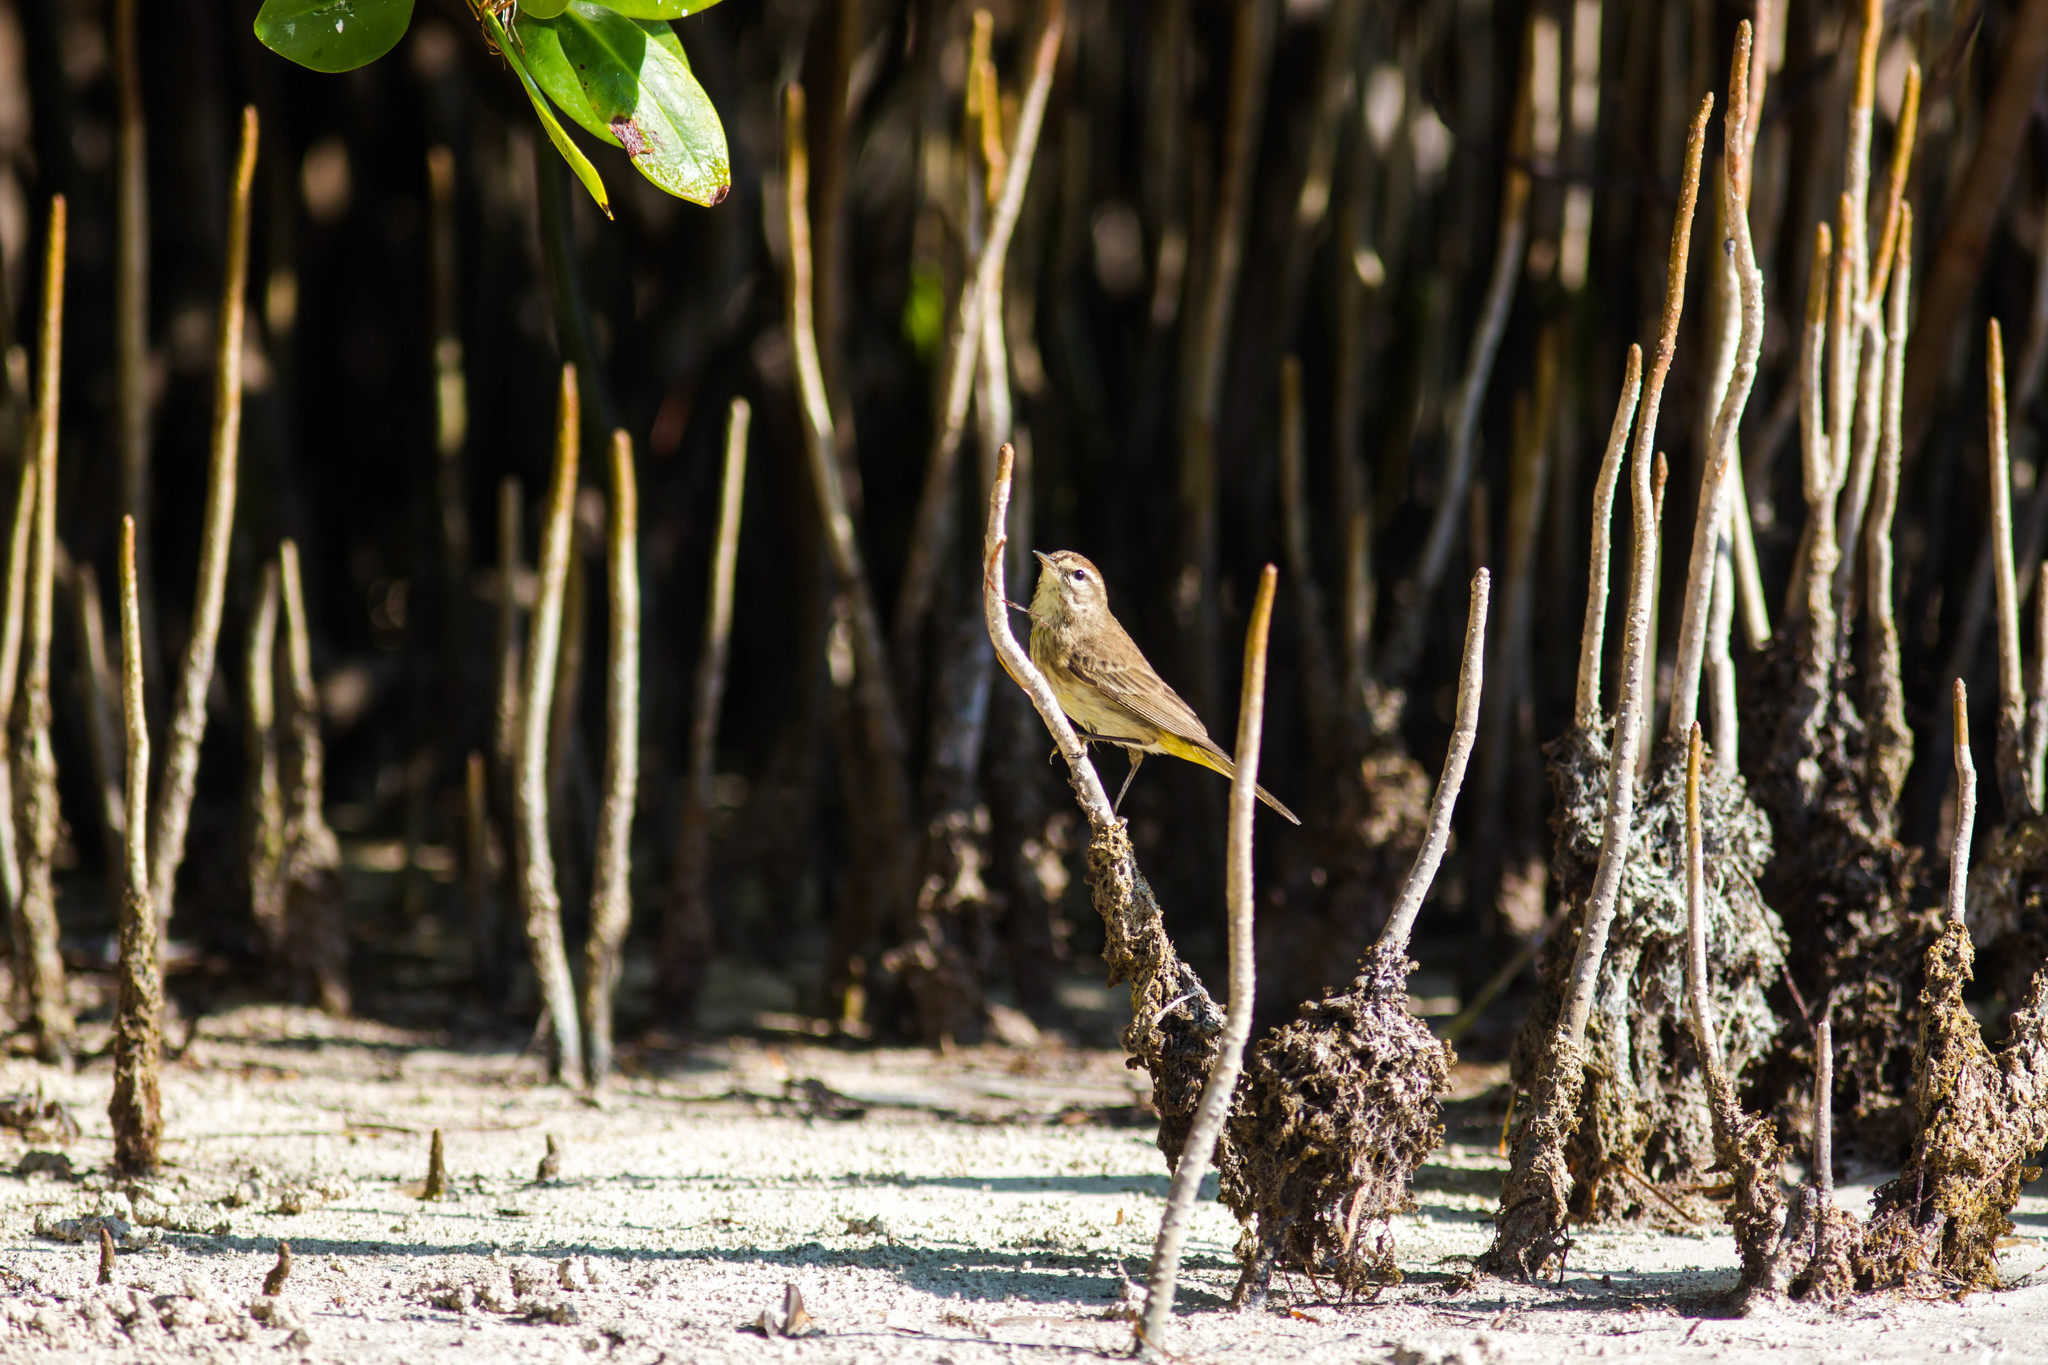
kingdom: Animalia
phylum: Chordata
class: Aves
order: Passeriformes
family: Parulidae
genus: Setophaga
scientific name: Setophaga palmarum
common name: Palm warbler
